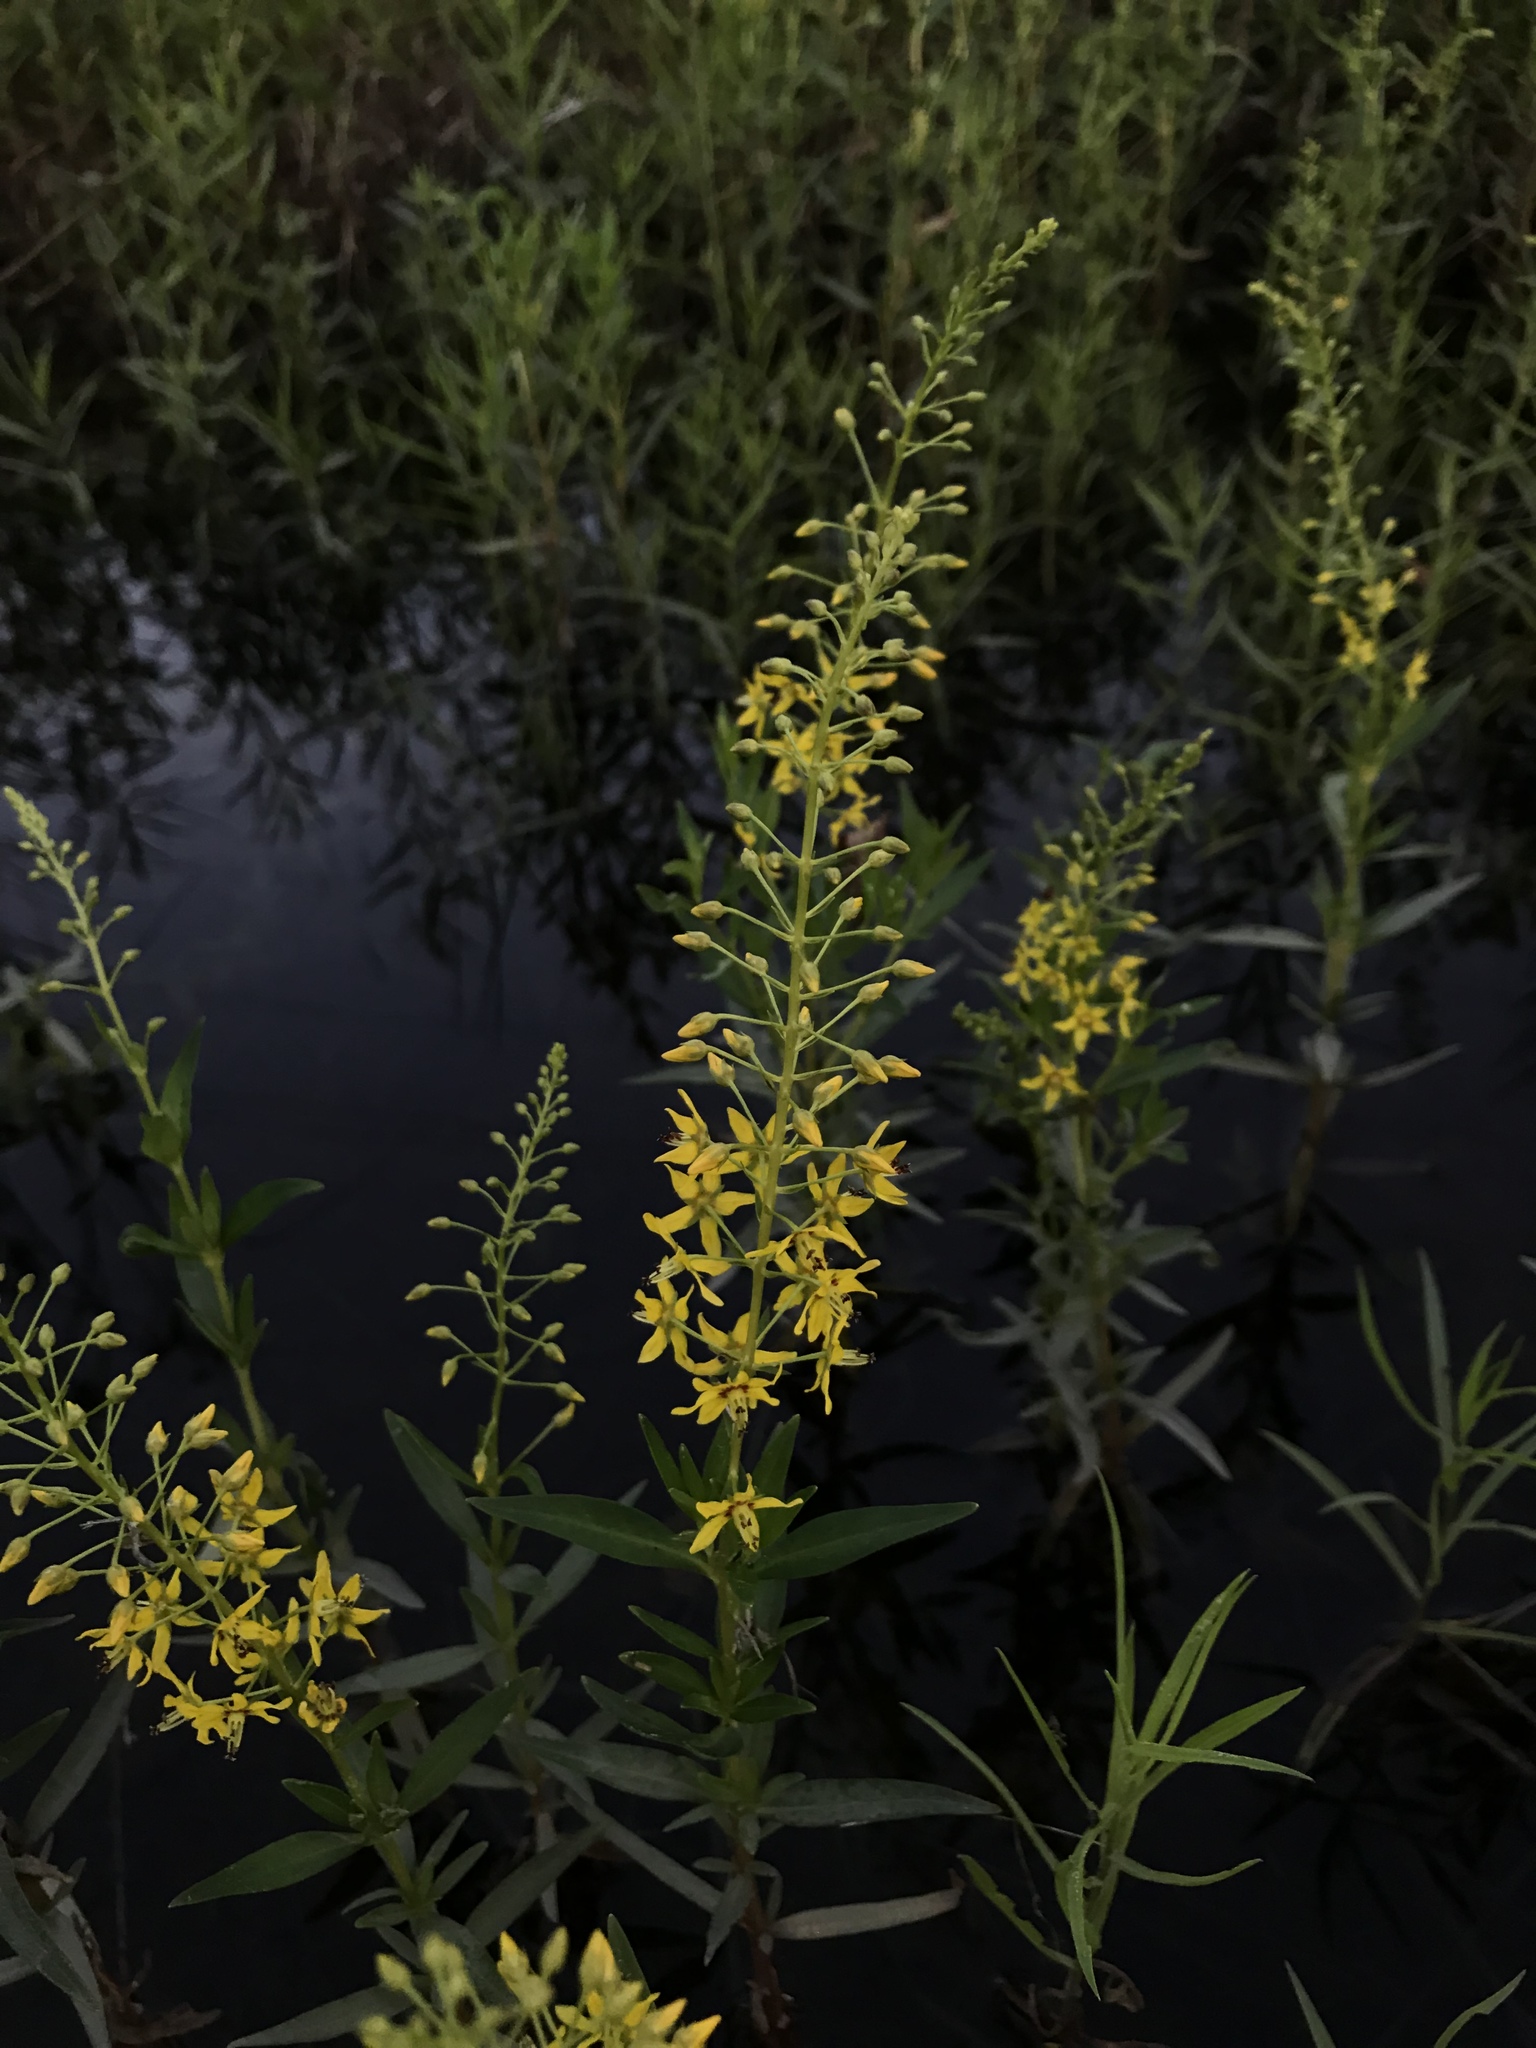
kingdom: Plantae
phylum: Tracheophyta
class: Magnoliopsida
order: Ericales
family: Primulaceae
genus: Lysimachia
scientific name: Lysimachia terrestris
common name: Lake loosestrife
